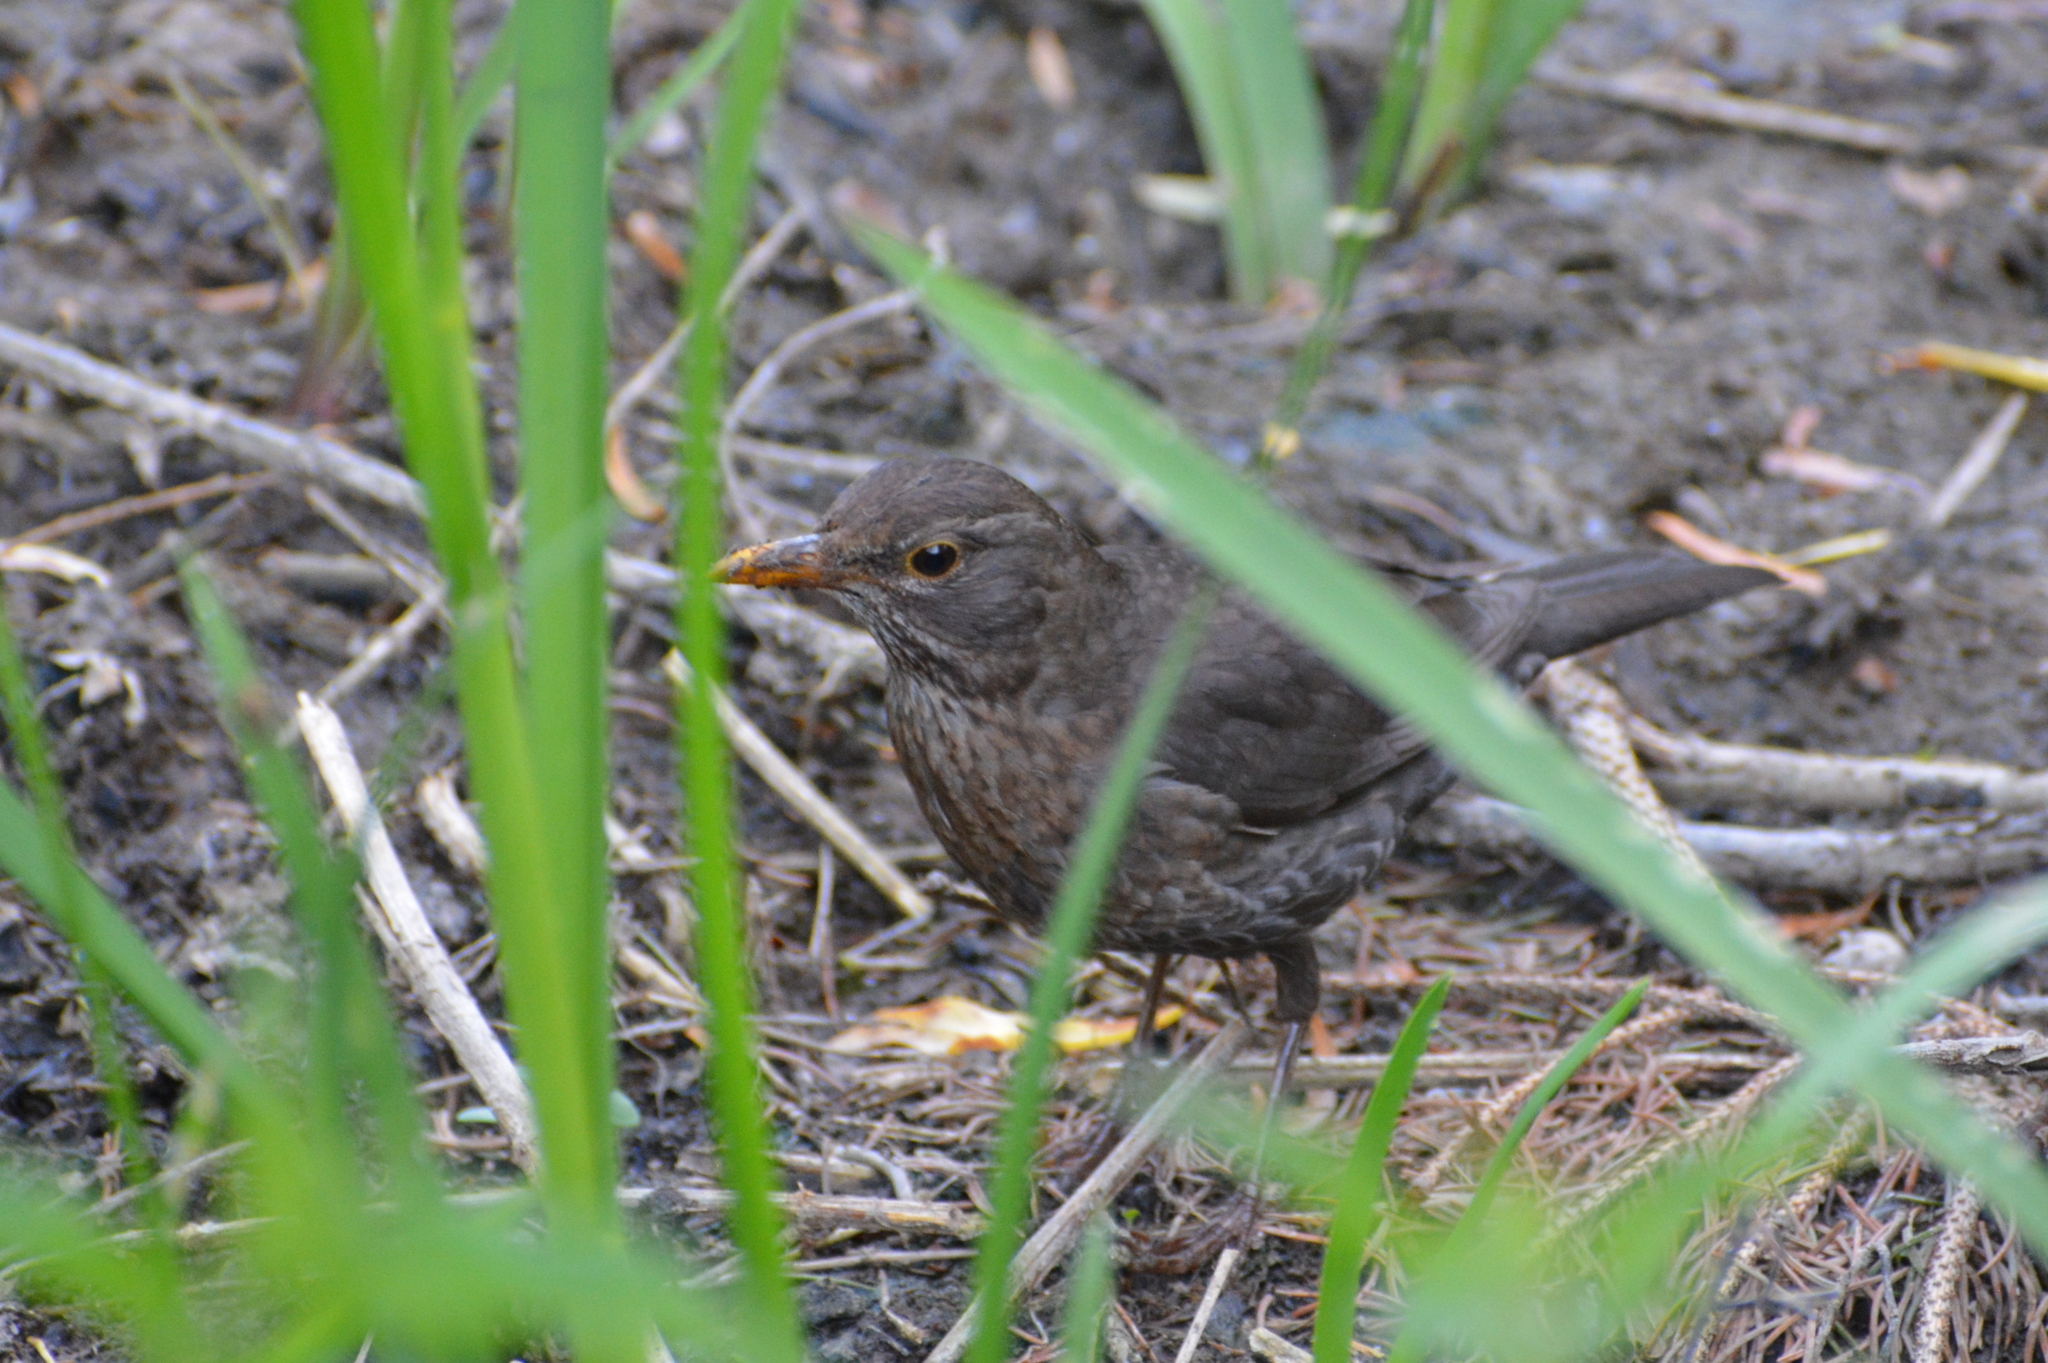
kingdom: Animalia
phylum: Chordata
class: Aves
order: Passeriformes
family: Turdidae
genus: Turdus
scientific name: Turdus merula
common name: Common blackbird
